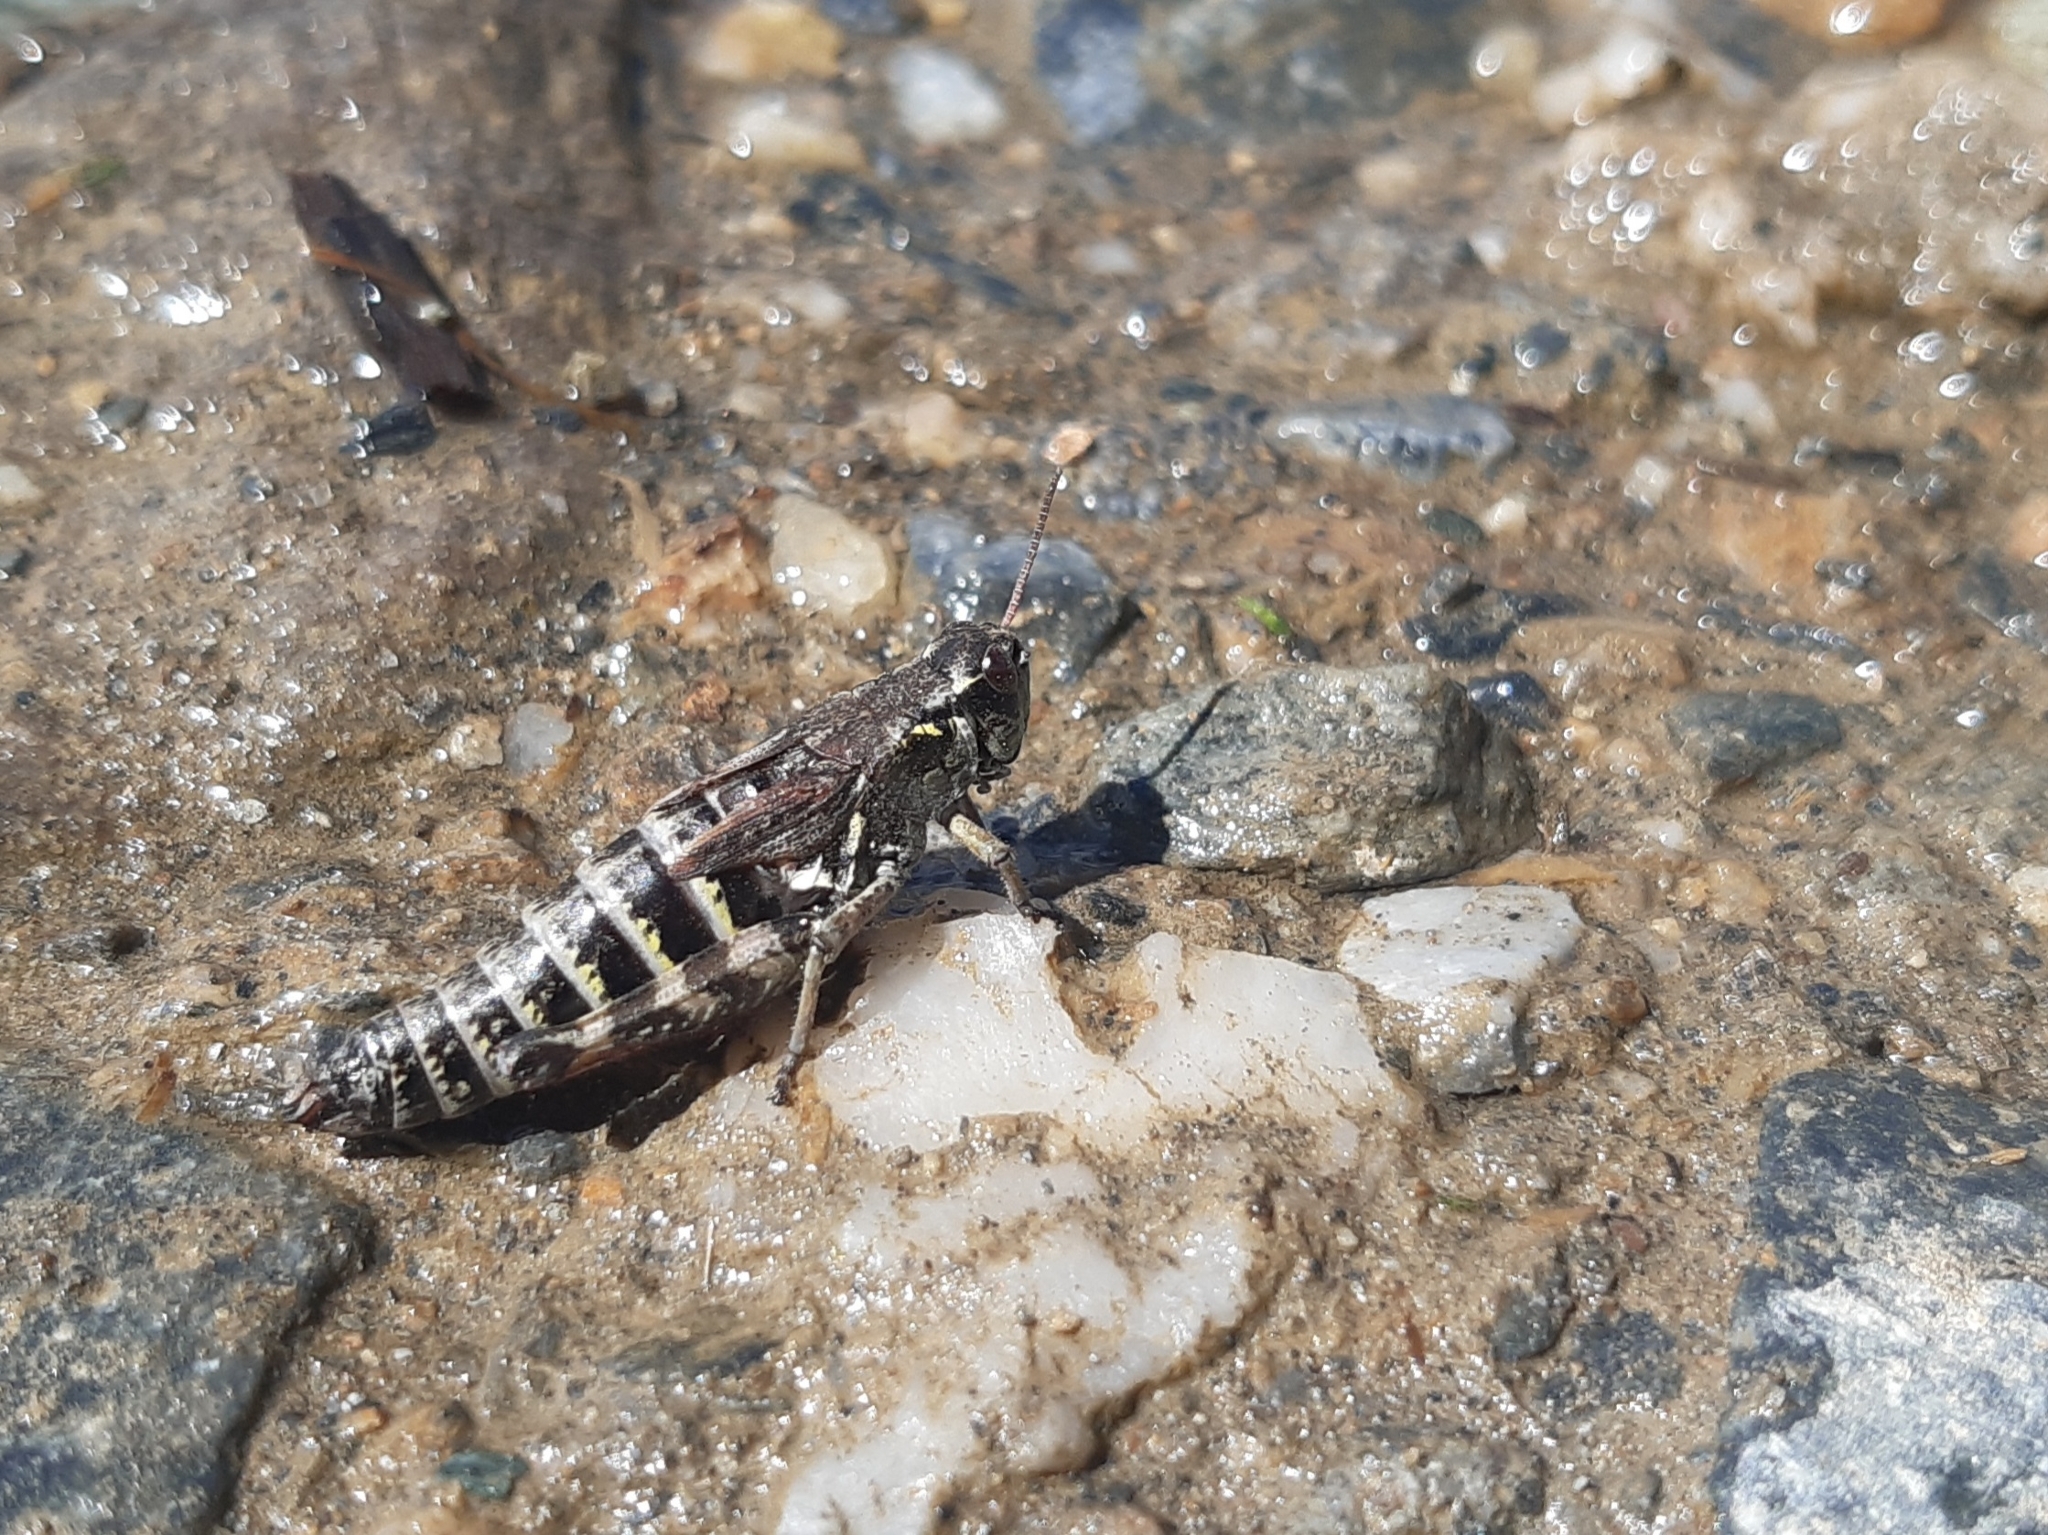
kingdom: Animalia
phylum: Arthropoda
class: Insecta
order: Orthoptera
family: Acrididae
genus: Bohemanella
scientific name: Bohemanella frigida
